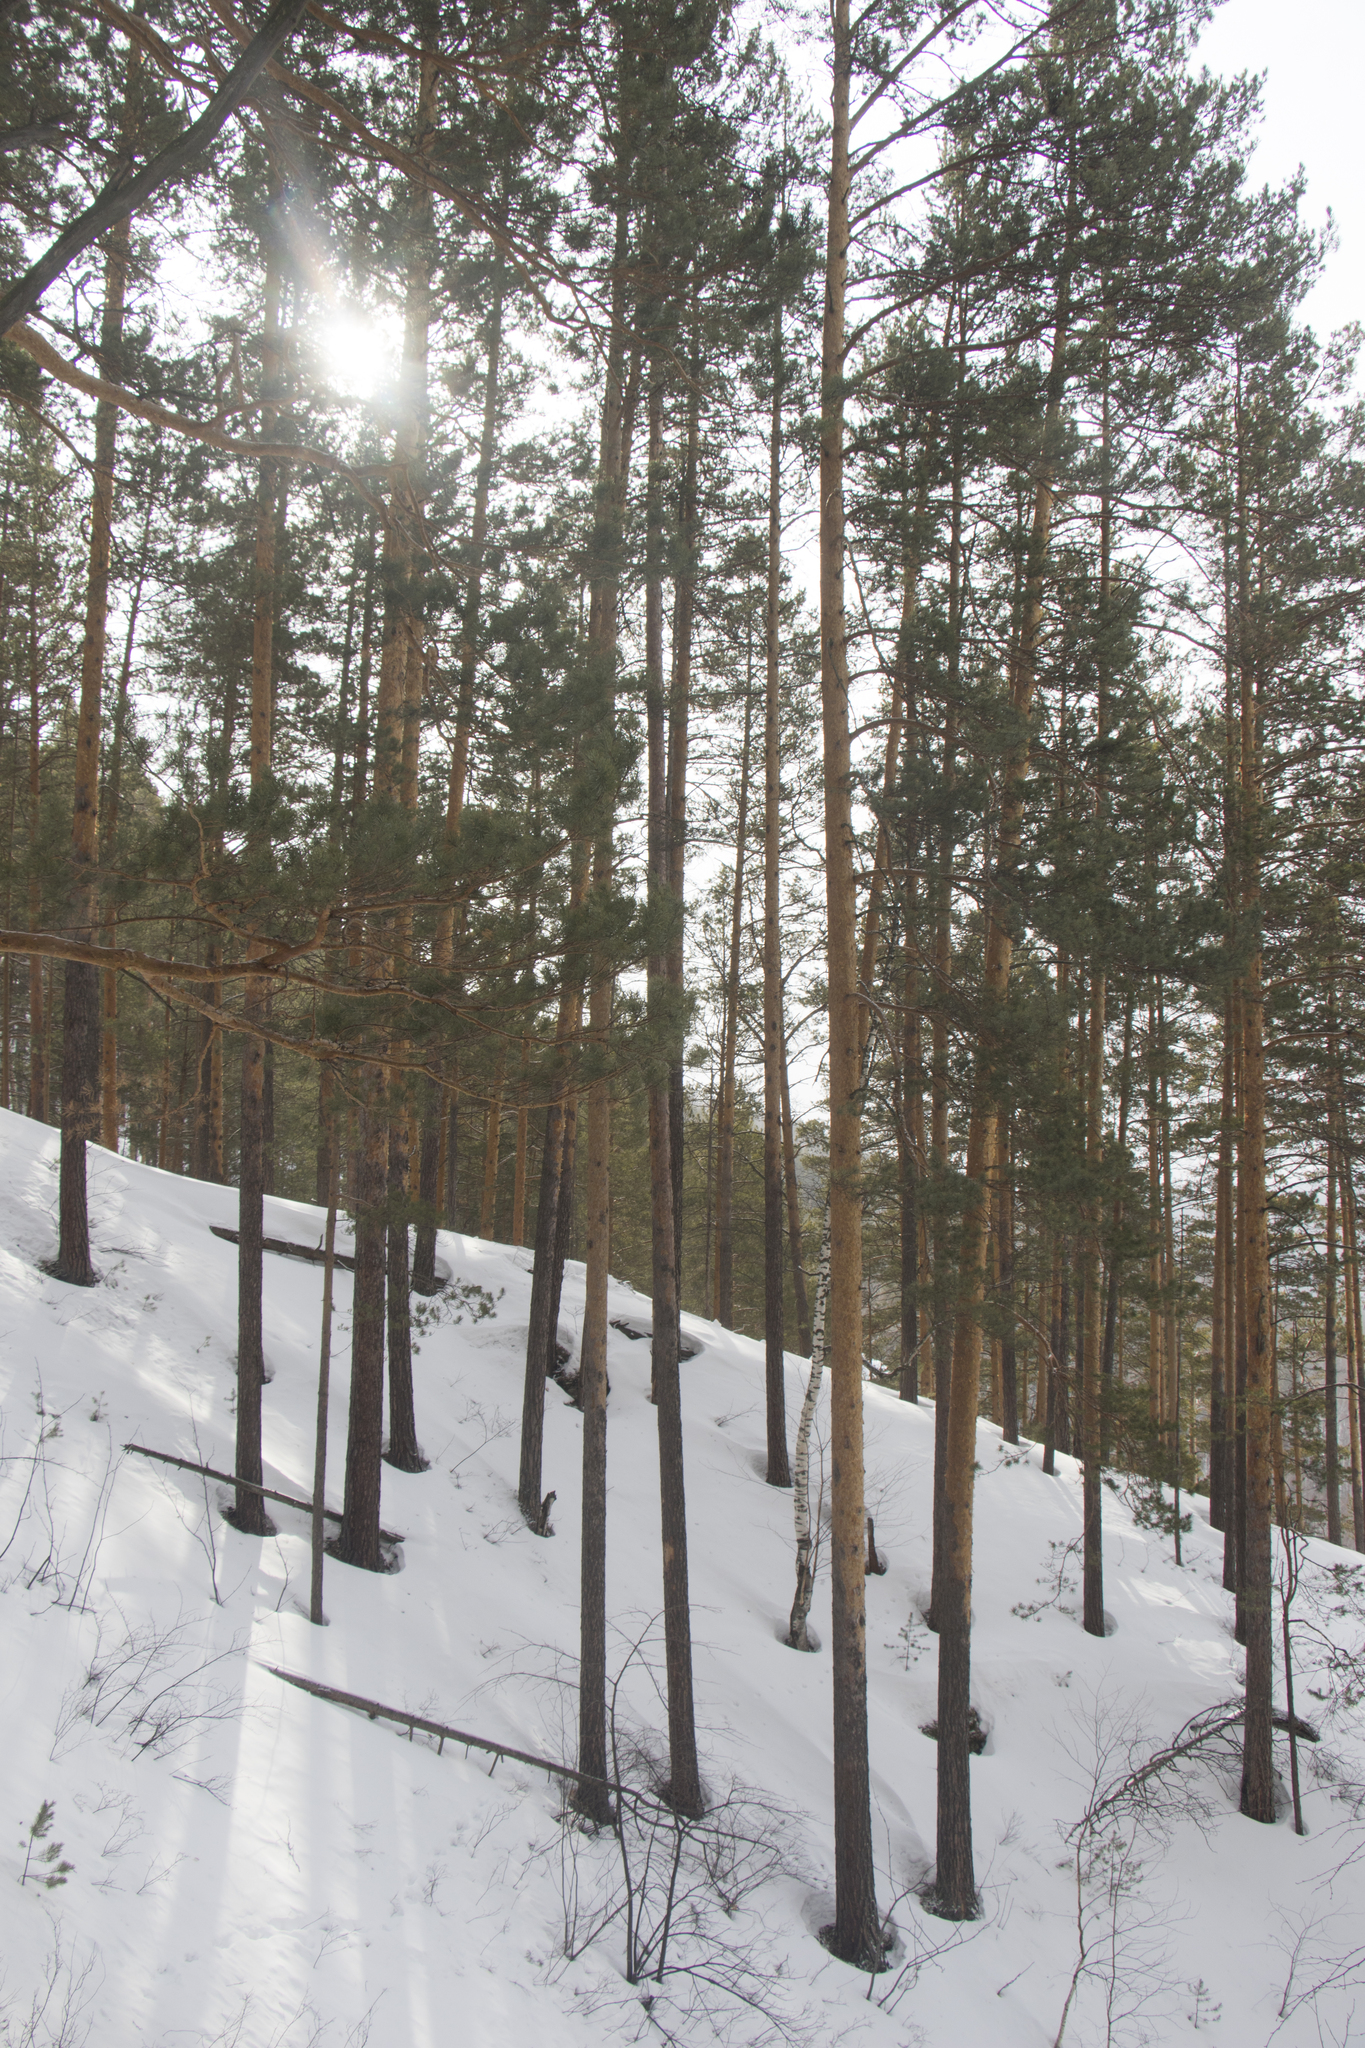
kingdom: Plantae
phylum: Tracheophyta
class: Pinopsida
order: Pinales
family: Pinaceae
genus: Pinus
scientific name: Pinus sylvestris
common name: Scots pine
